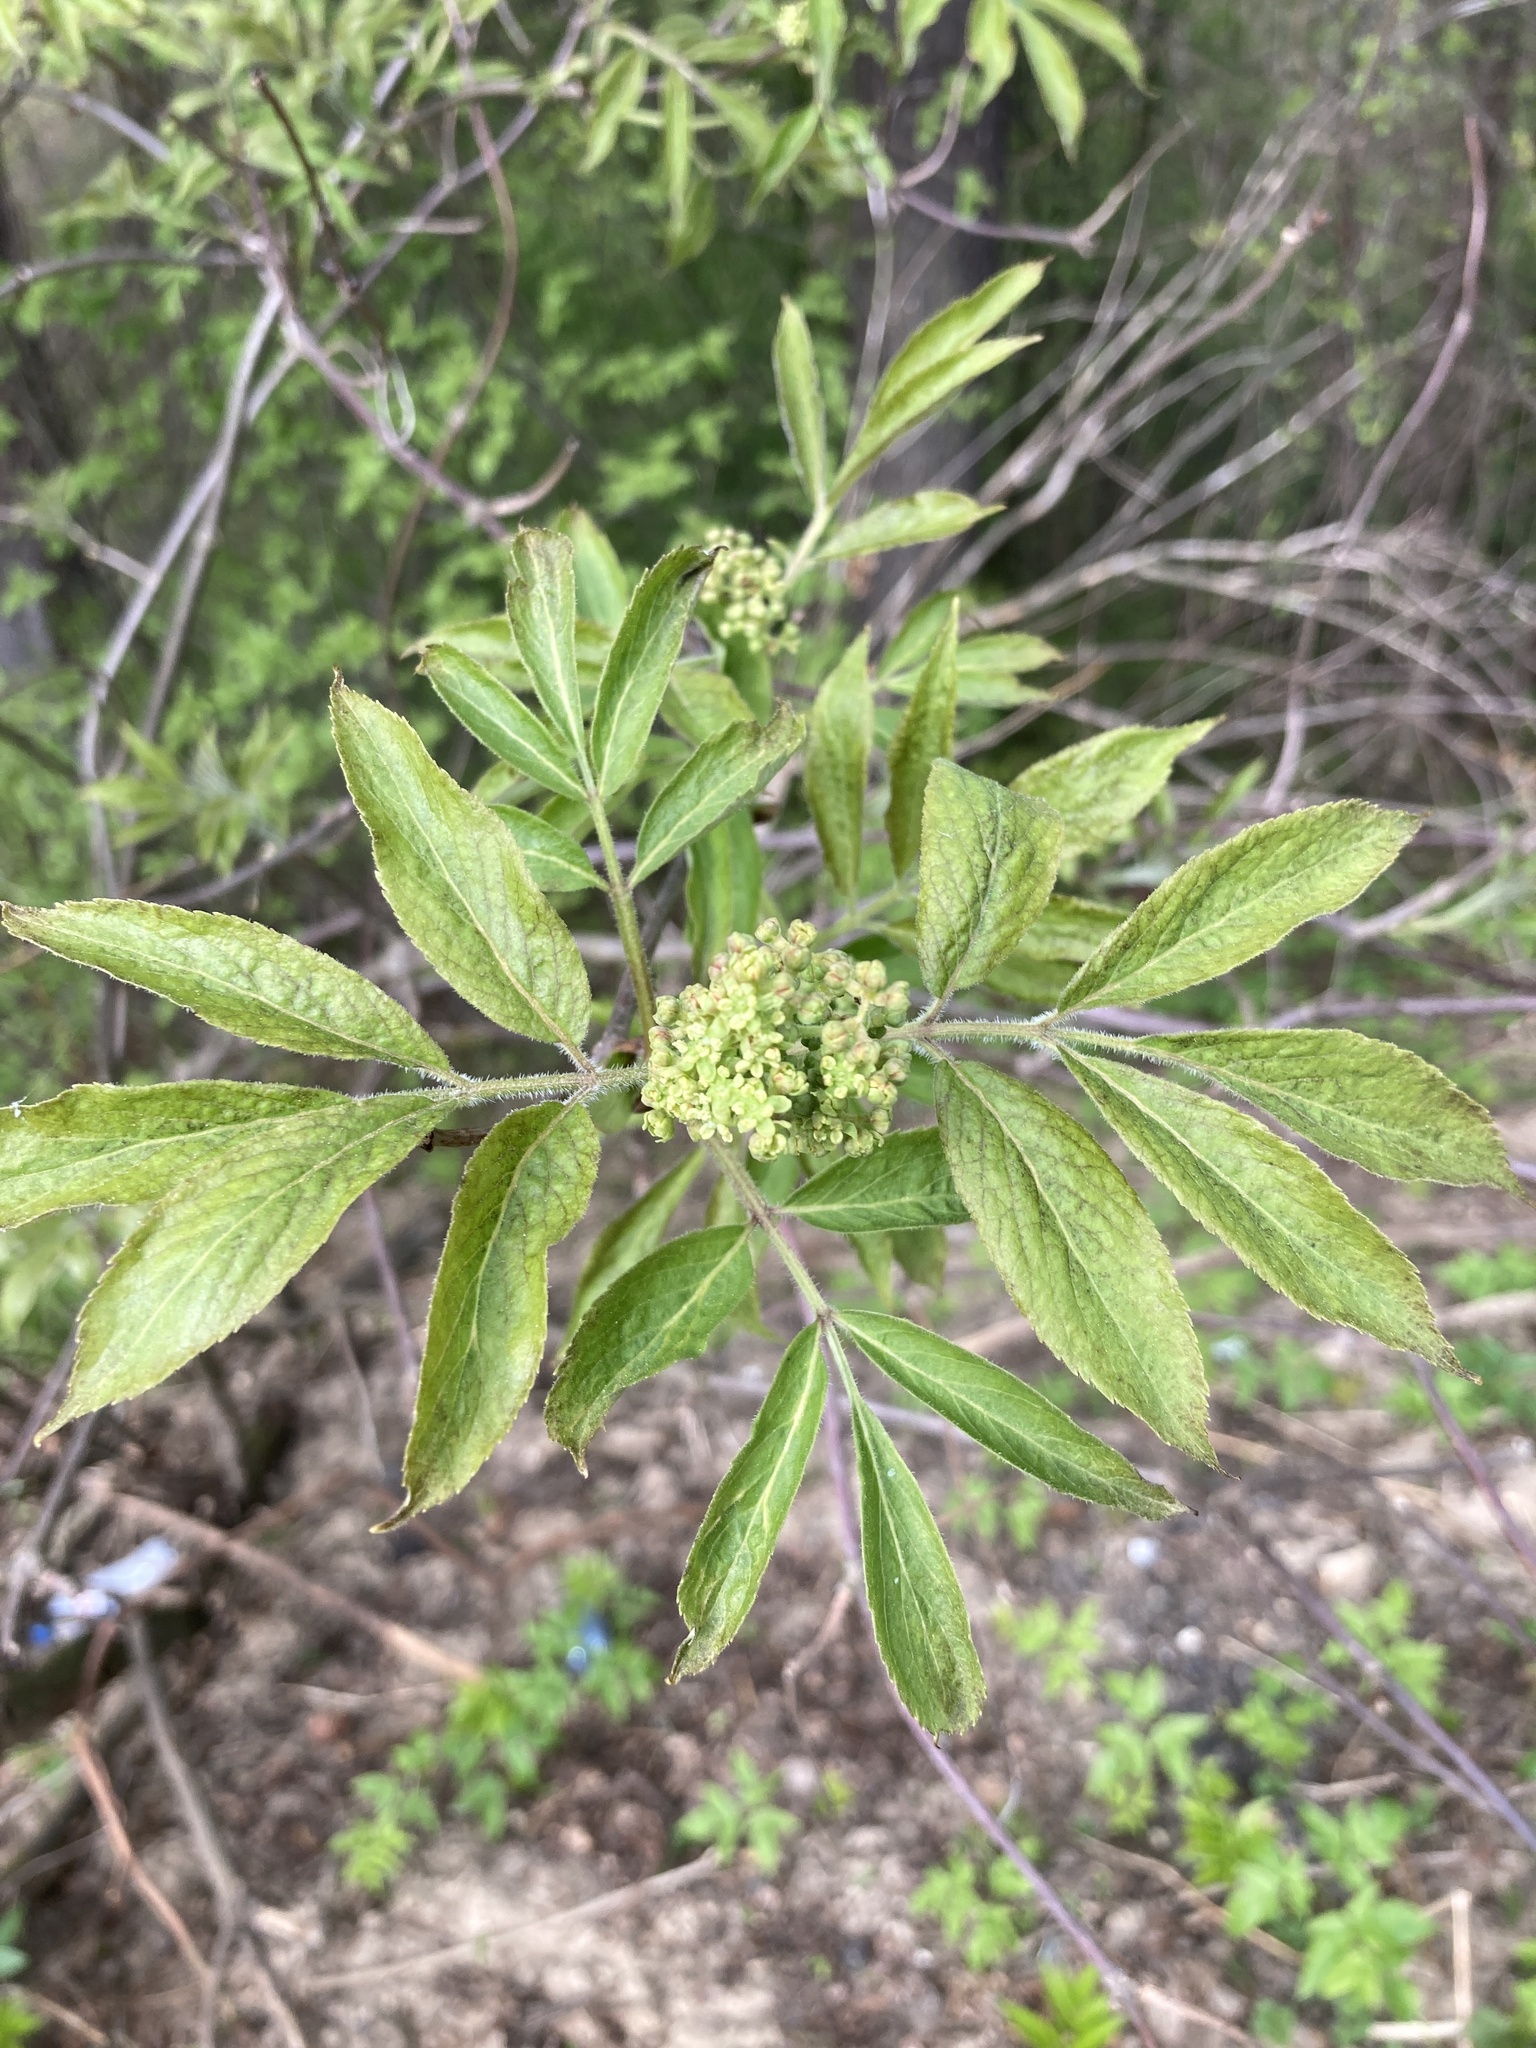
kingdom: Plantae
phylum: Tracheophyta
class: Magnoliopsida
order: Dipsacales
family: Viburnaceae
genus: Sambucus
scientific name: Sambucus racemosa
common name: Red-berried elder
